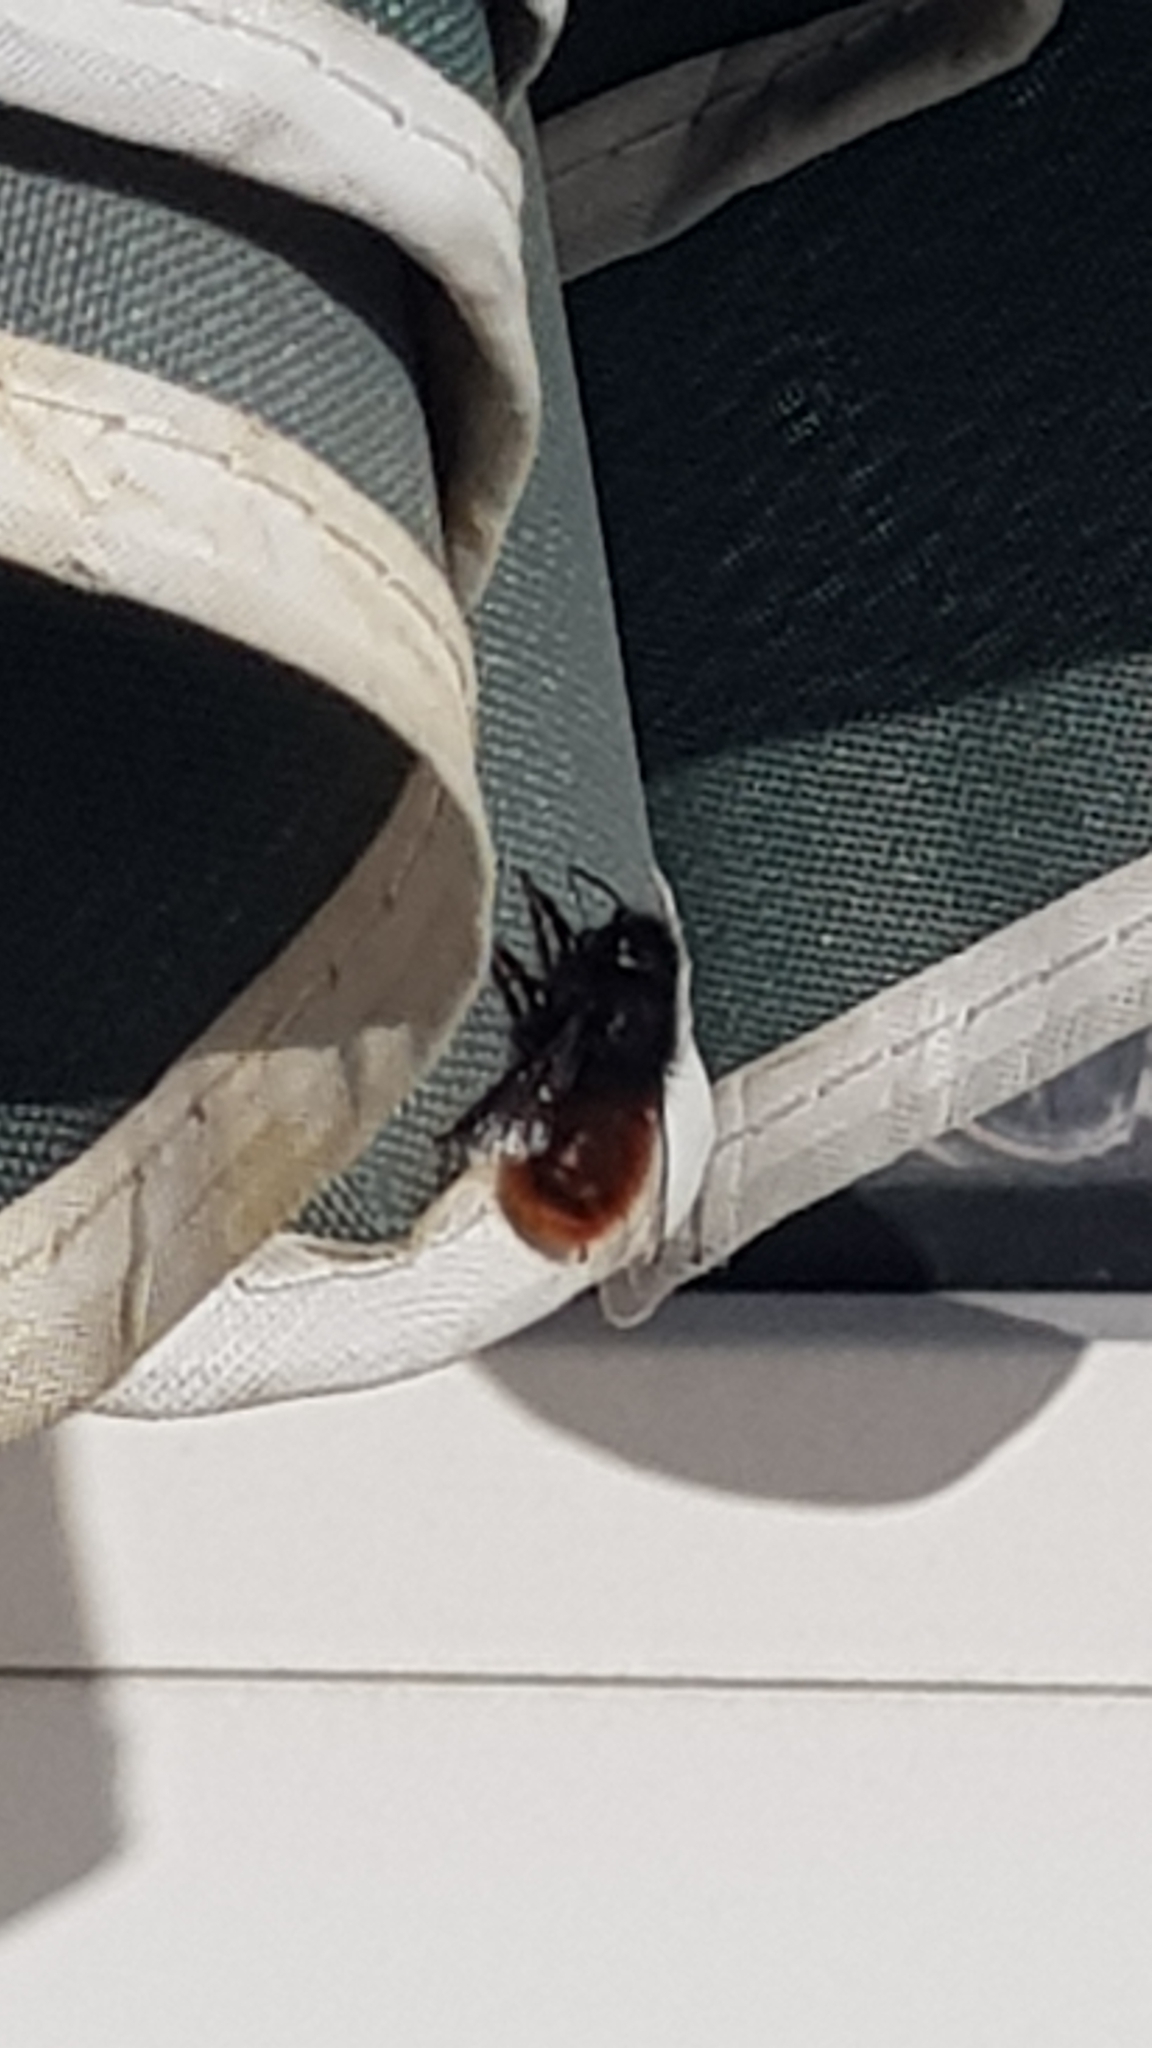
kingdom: Animalia
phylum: Arthropoda
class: Insecta
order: Hymenoptera
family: Megachilidae
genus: Osmia
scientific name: Osmia cornuta
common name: Mason bee
